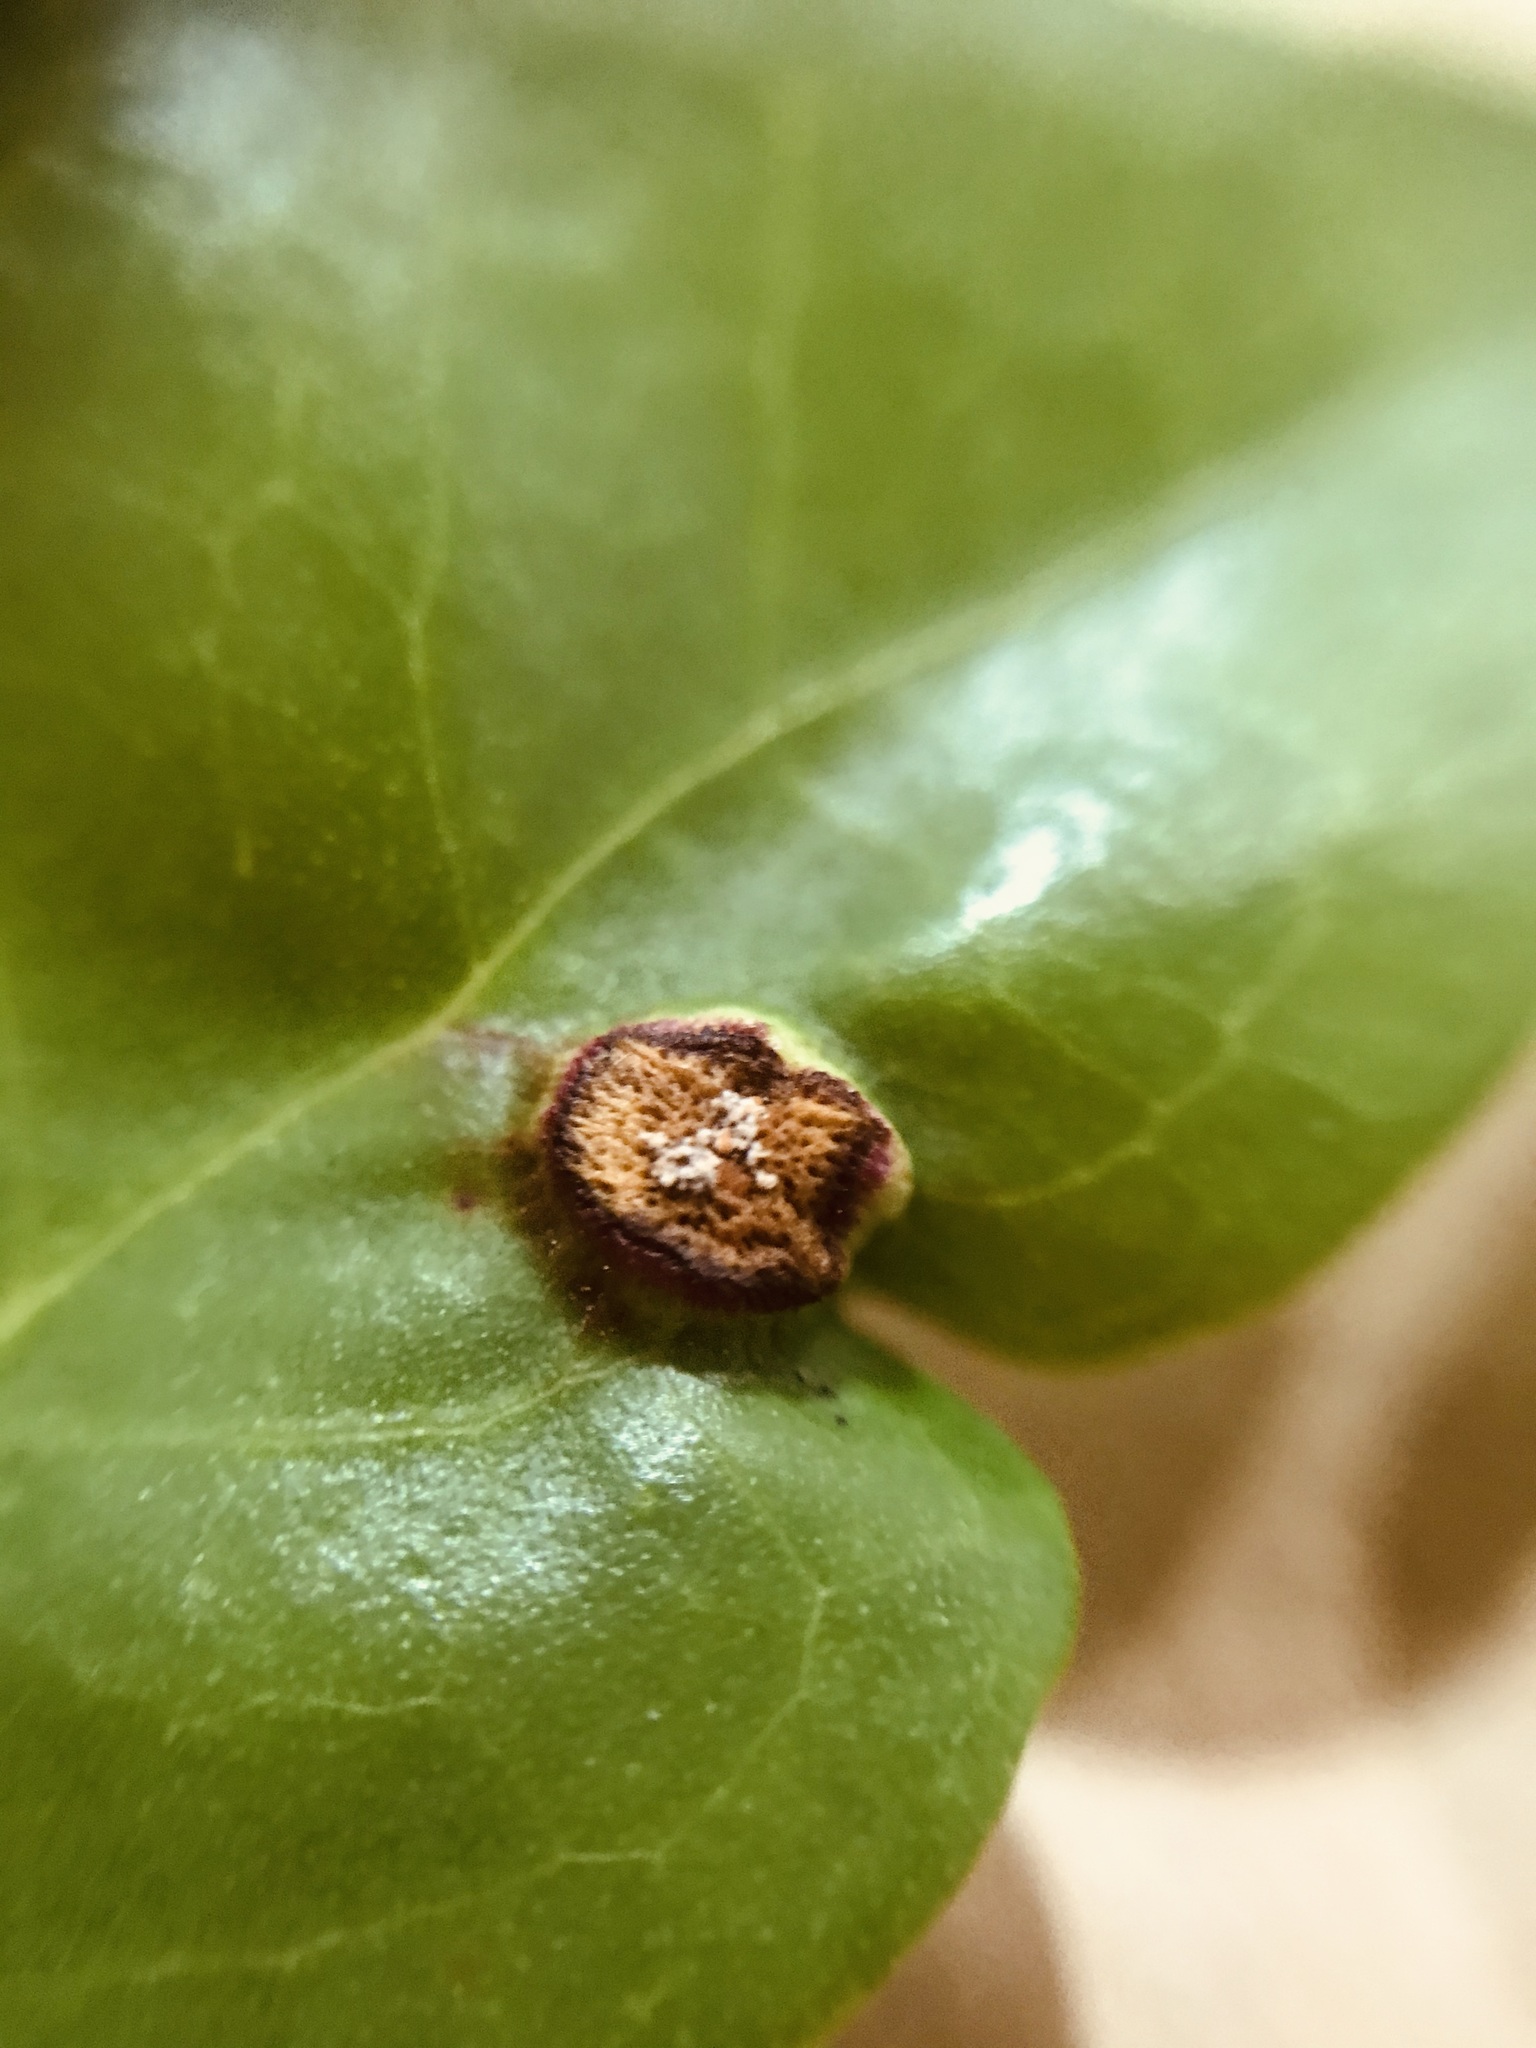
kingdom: Animalia
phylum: Arthropoda
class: Insecta
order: Diptera
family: Cecidomyiidae
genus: Maiamyia
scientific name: Maiamyia dispar
